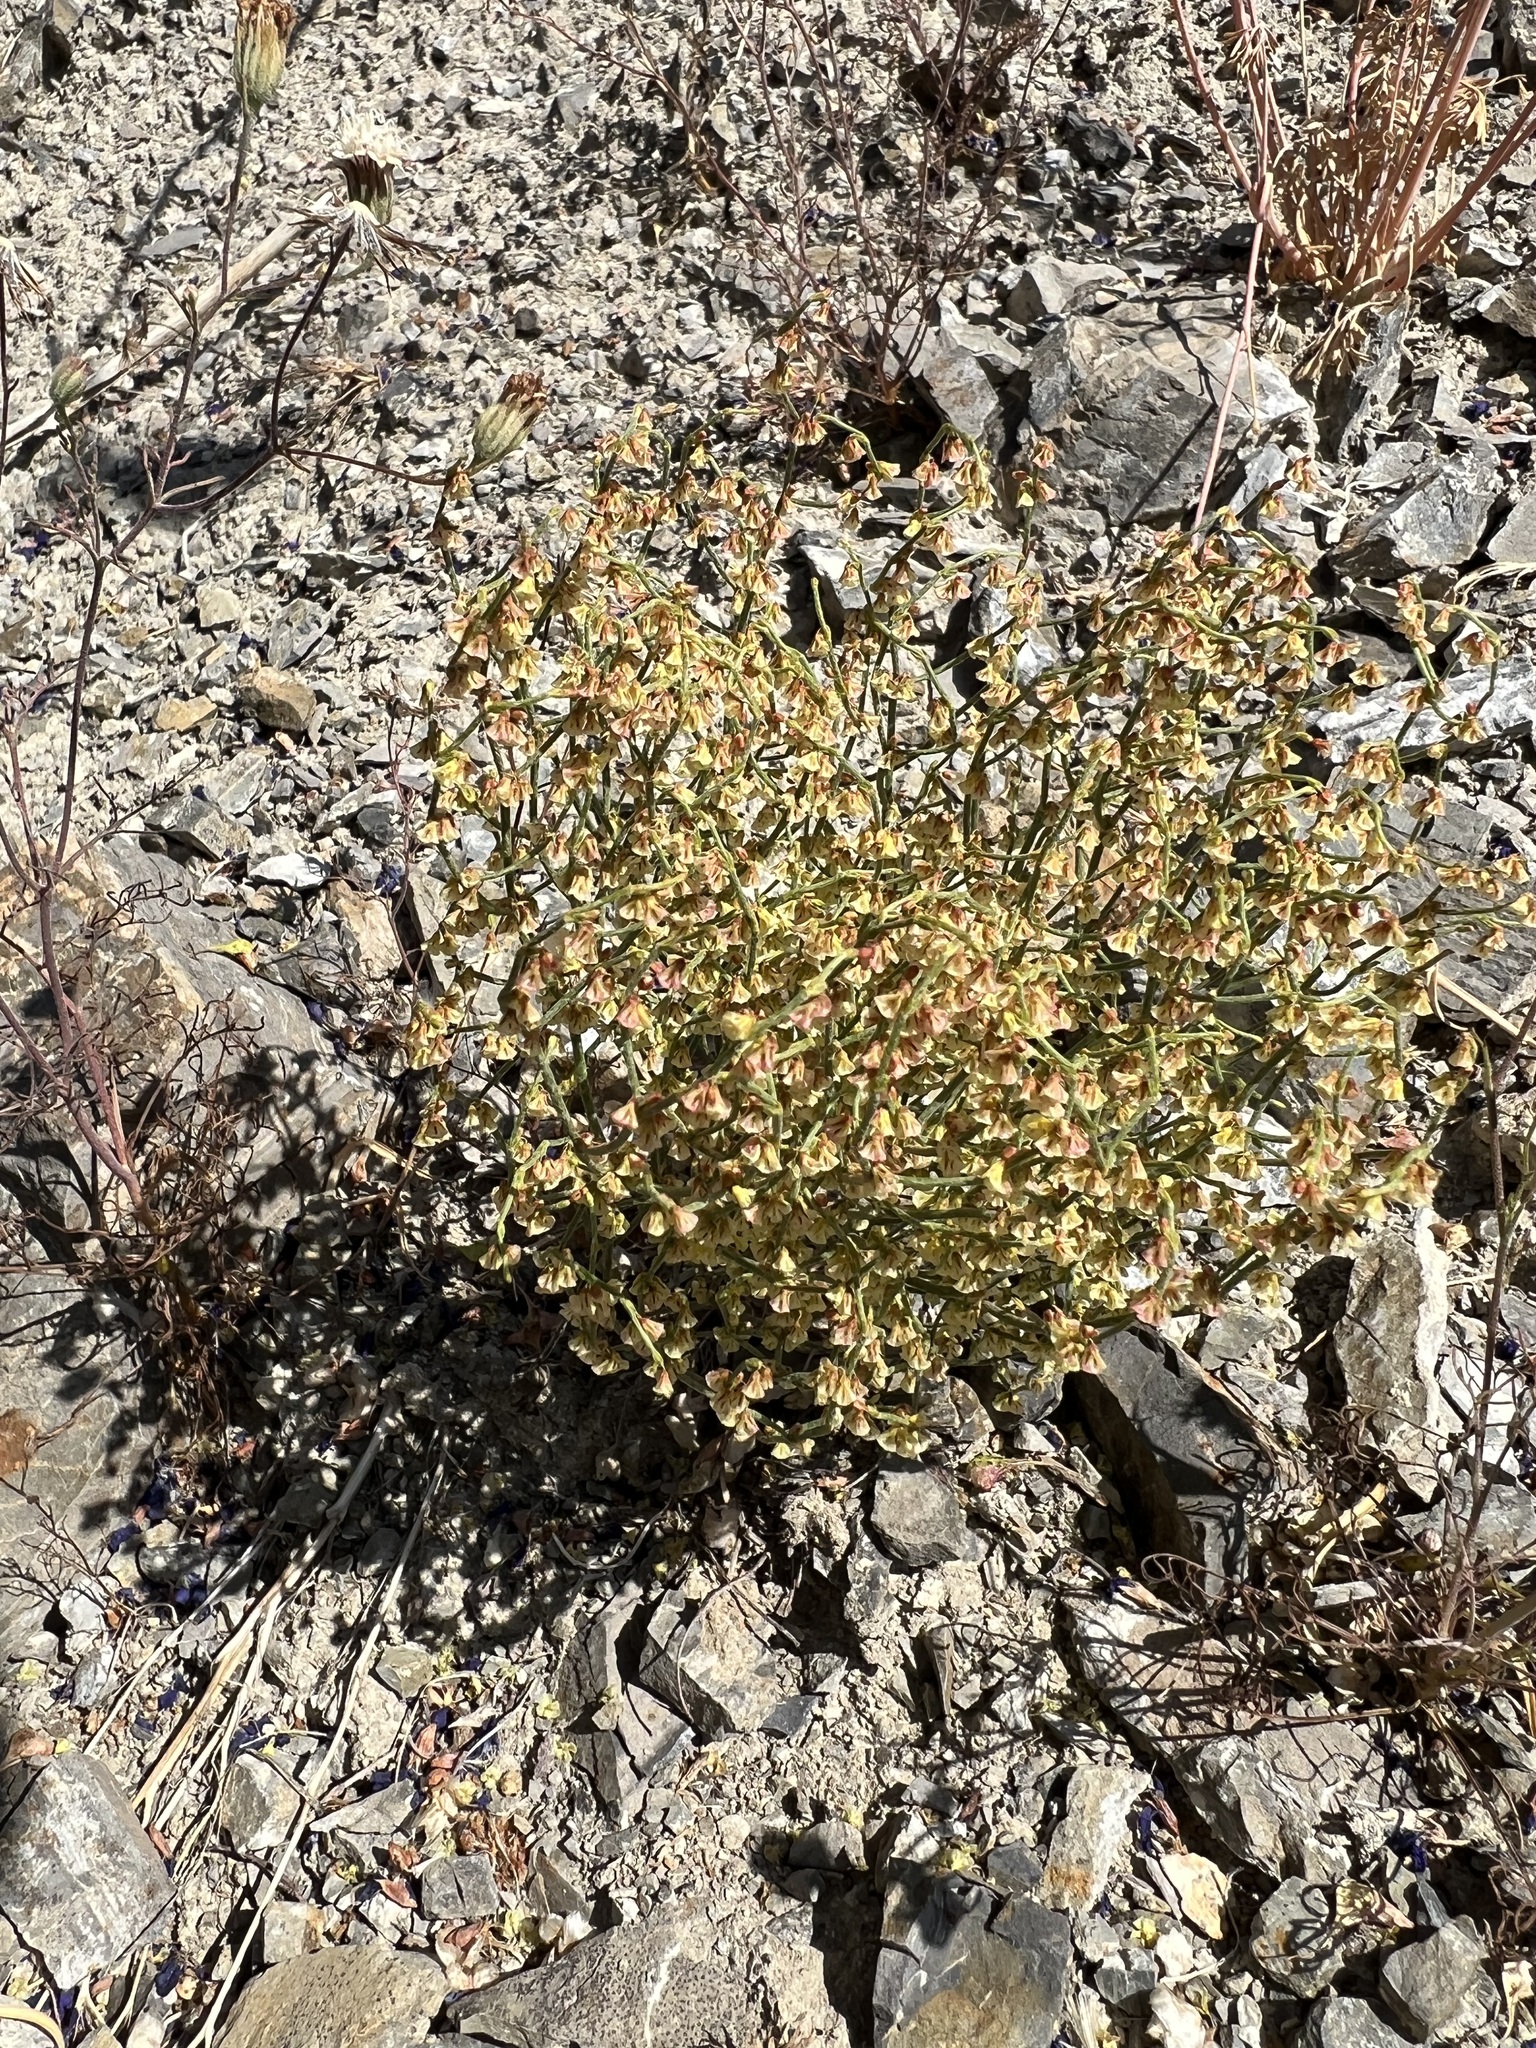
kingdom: Plantae
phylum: Tracheophyta
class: Magnoliopsida
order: Caryophyllales
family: Polygonaceae
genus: Eriogonum
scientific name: Eriogonum nidularium
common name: Bird's-nest wild buckwheat
